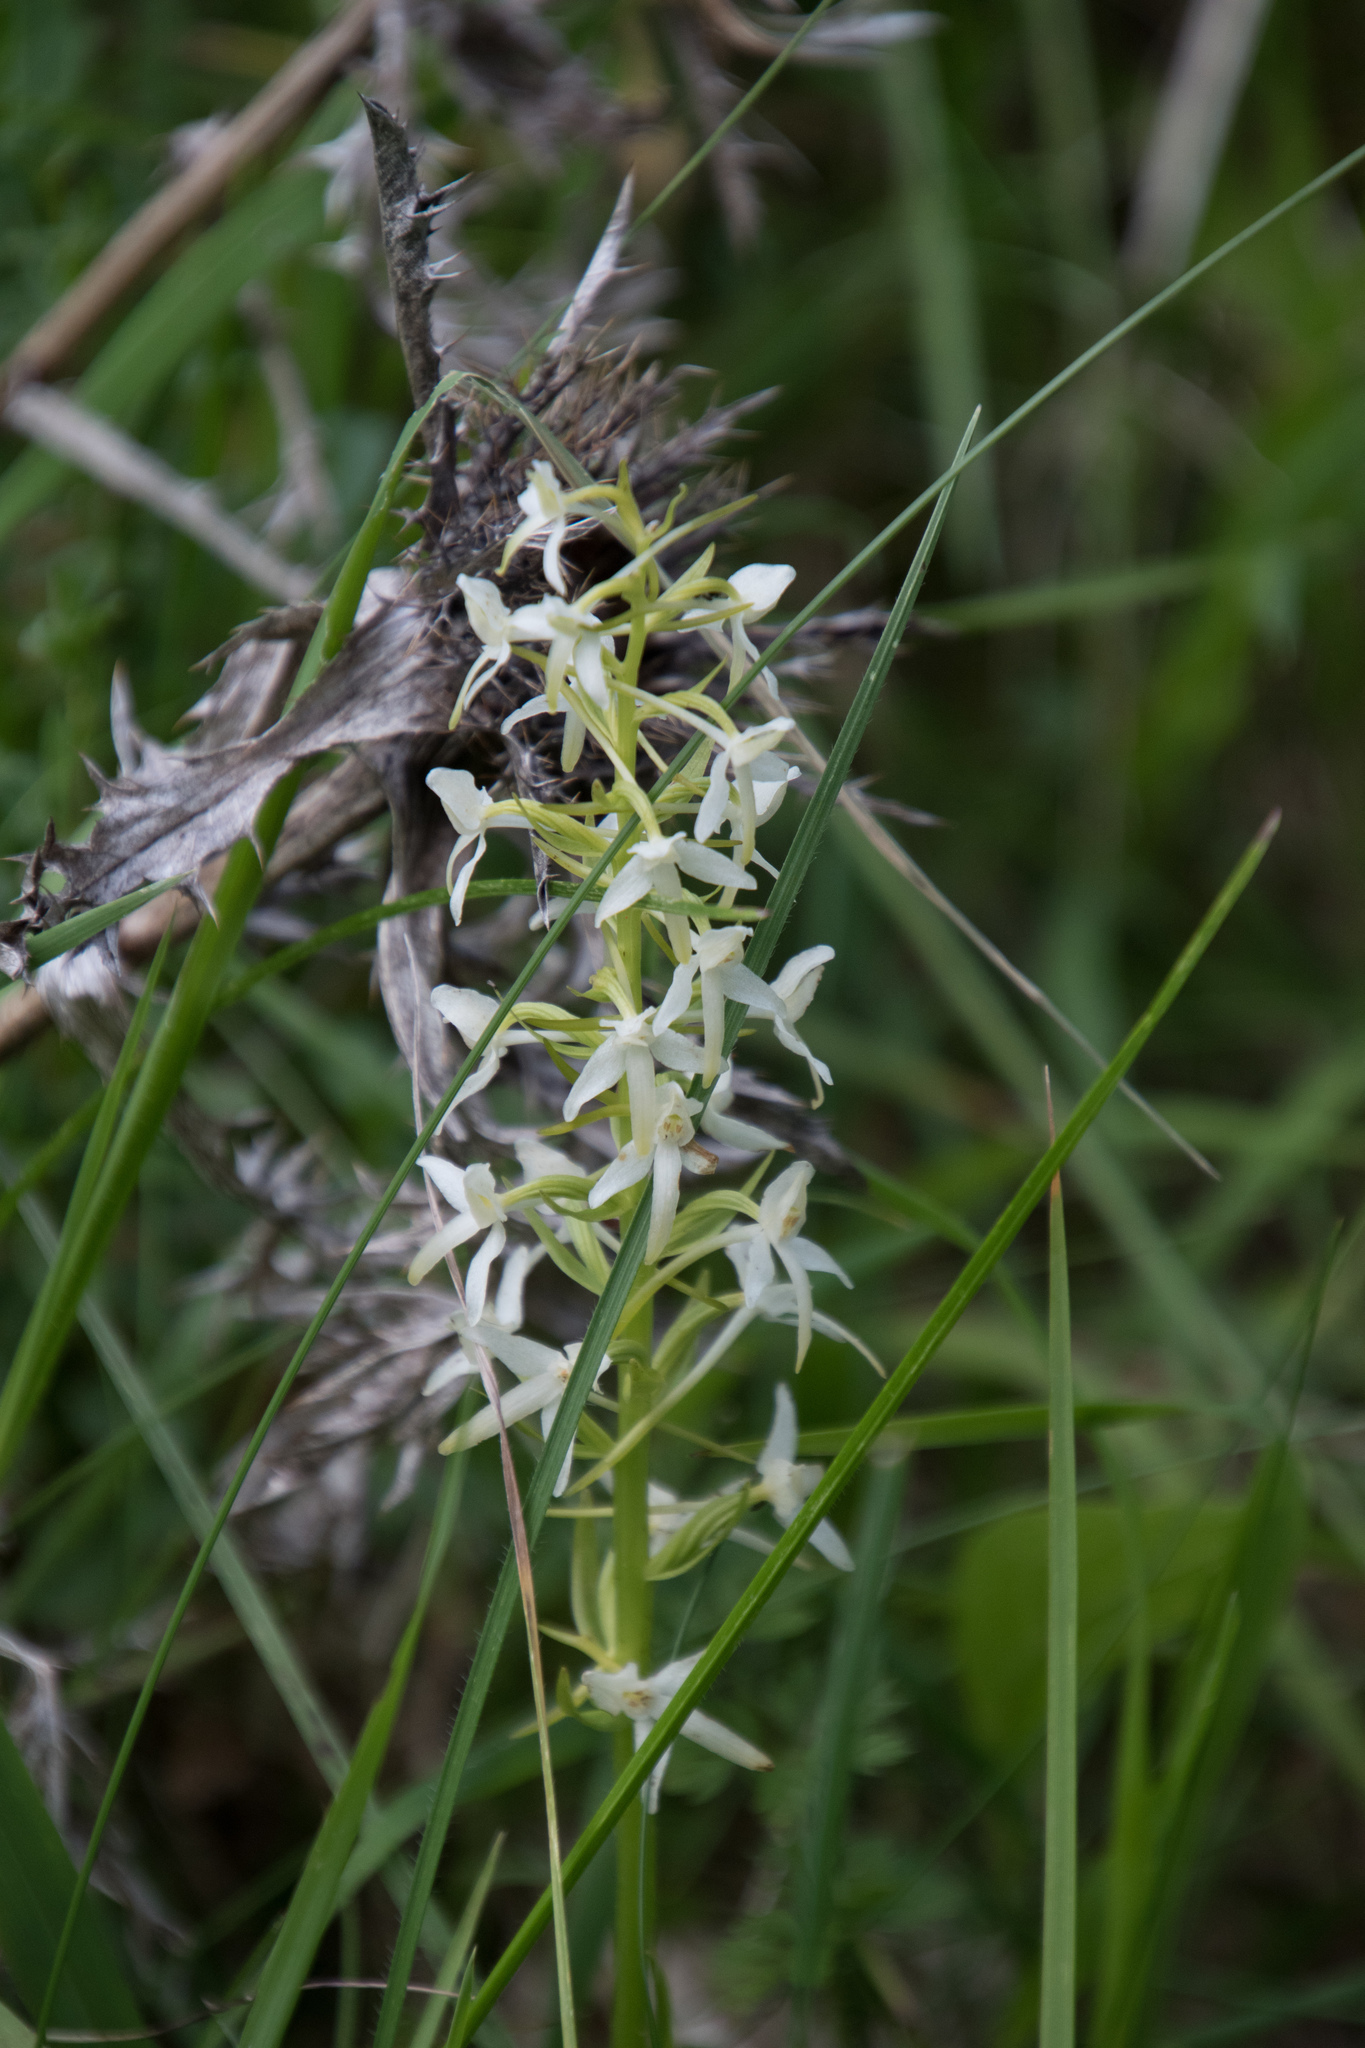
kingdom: Plantae
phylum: Tracheophyta
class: Liliopsida
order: Asparagales
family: Orchidaceae
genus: Platanthera
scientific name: Platanthera bifolia
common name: Lesser butterfly-orchid
